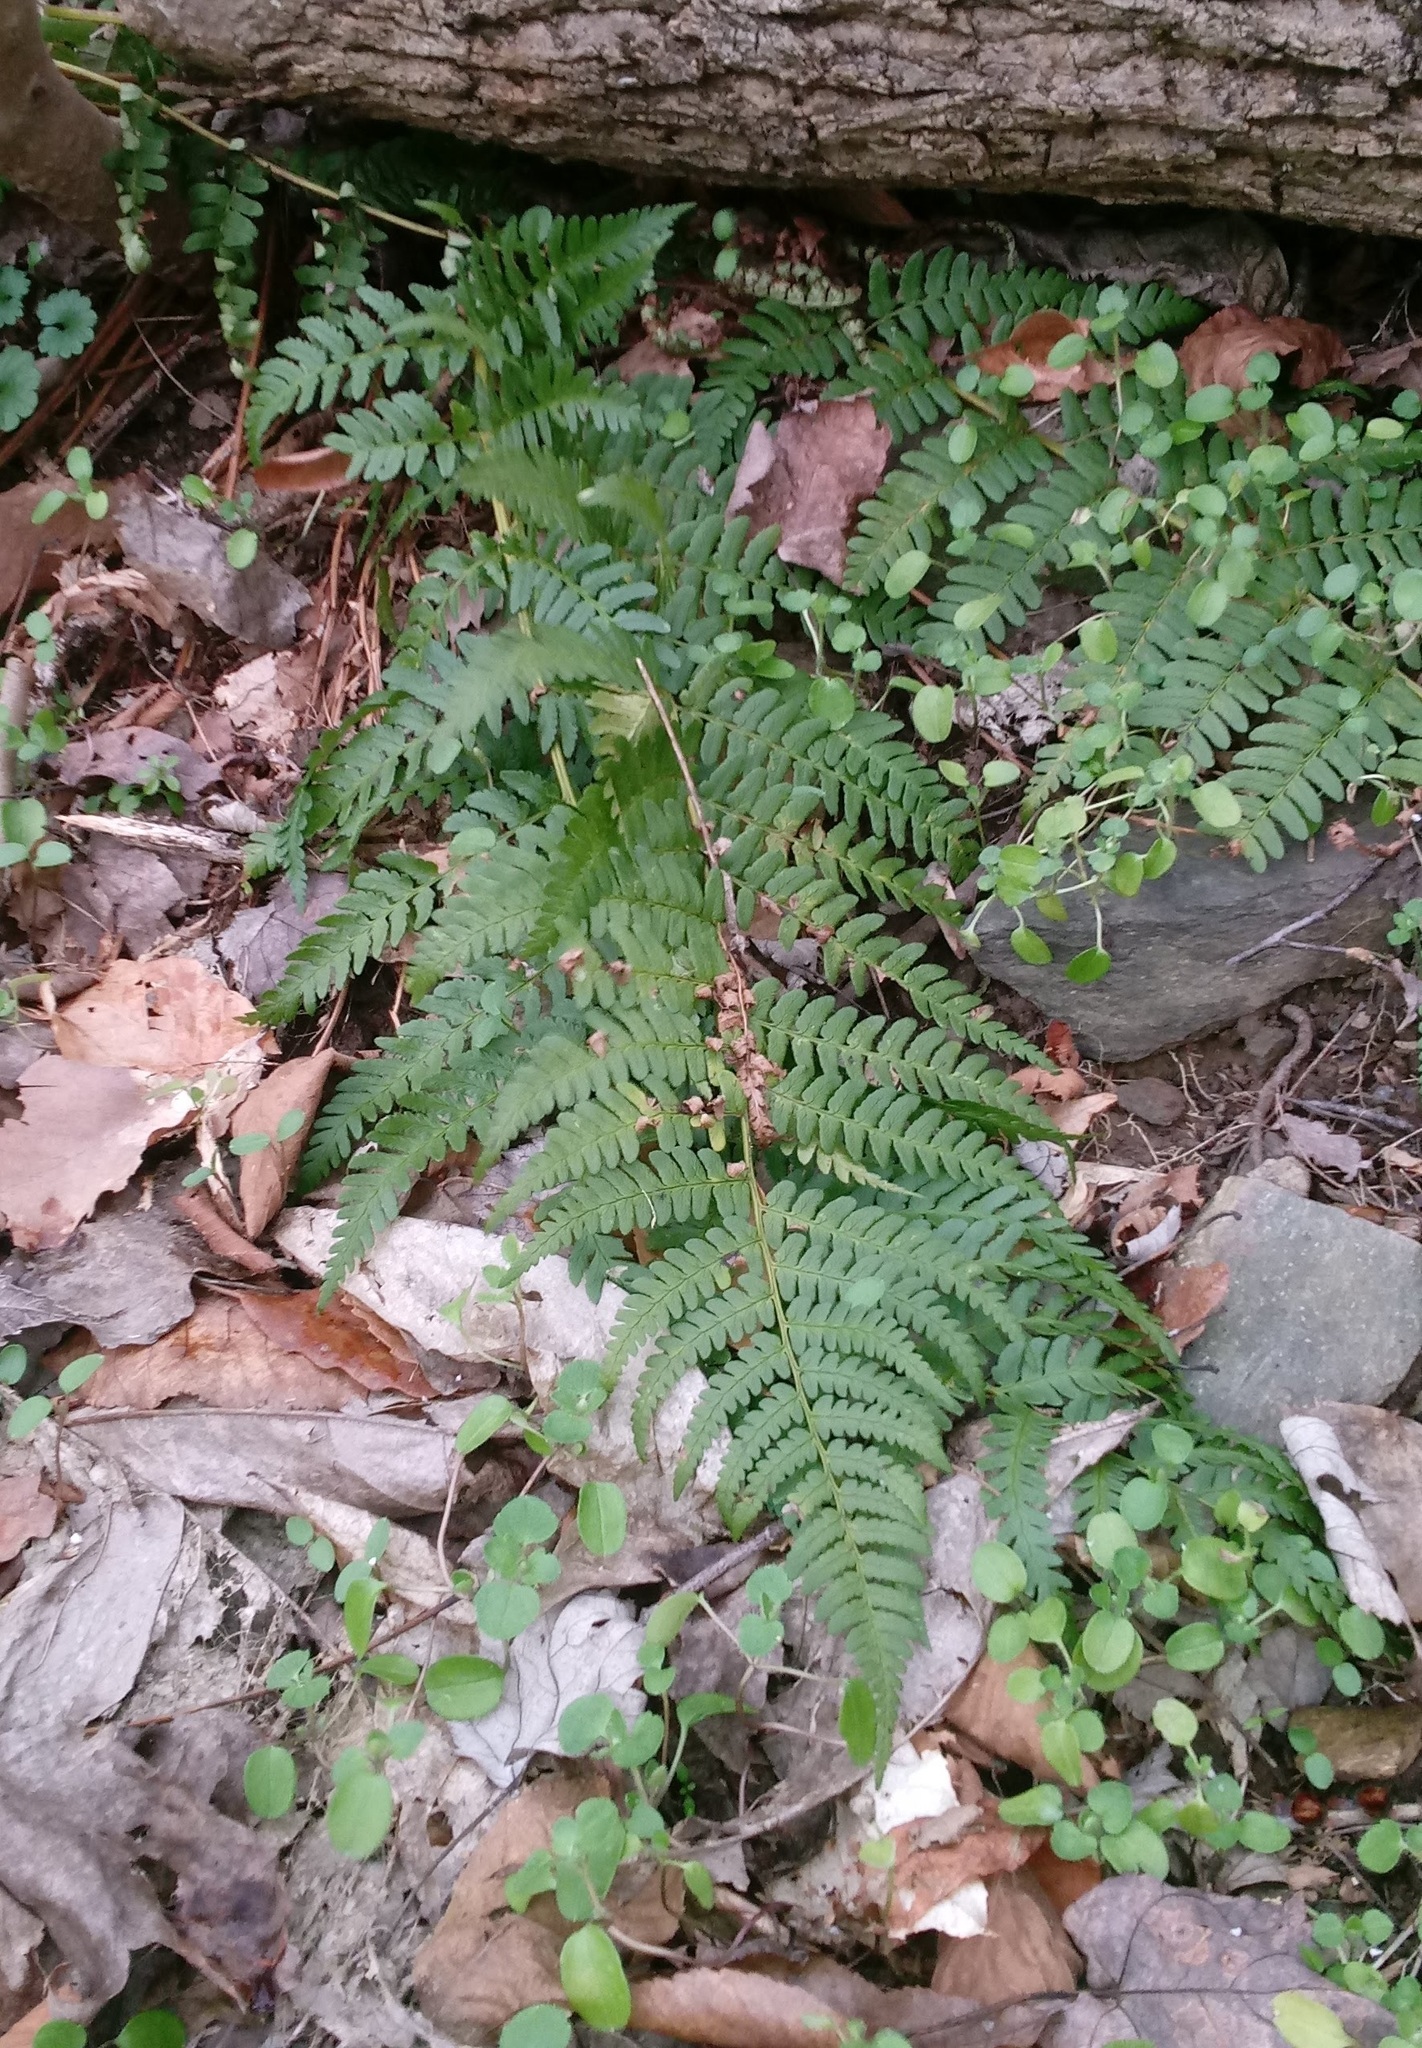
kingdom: Plantae
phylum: Tracheophyta
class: Polypodiopsida
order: Polypodiales
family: Dryopteridaceae
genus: Dryopteris
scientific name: Dryopteris marginalis
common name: Marginal wood fern
